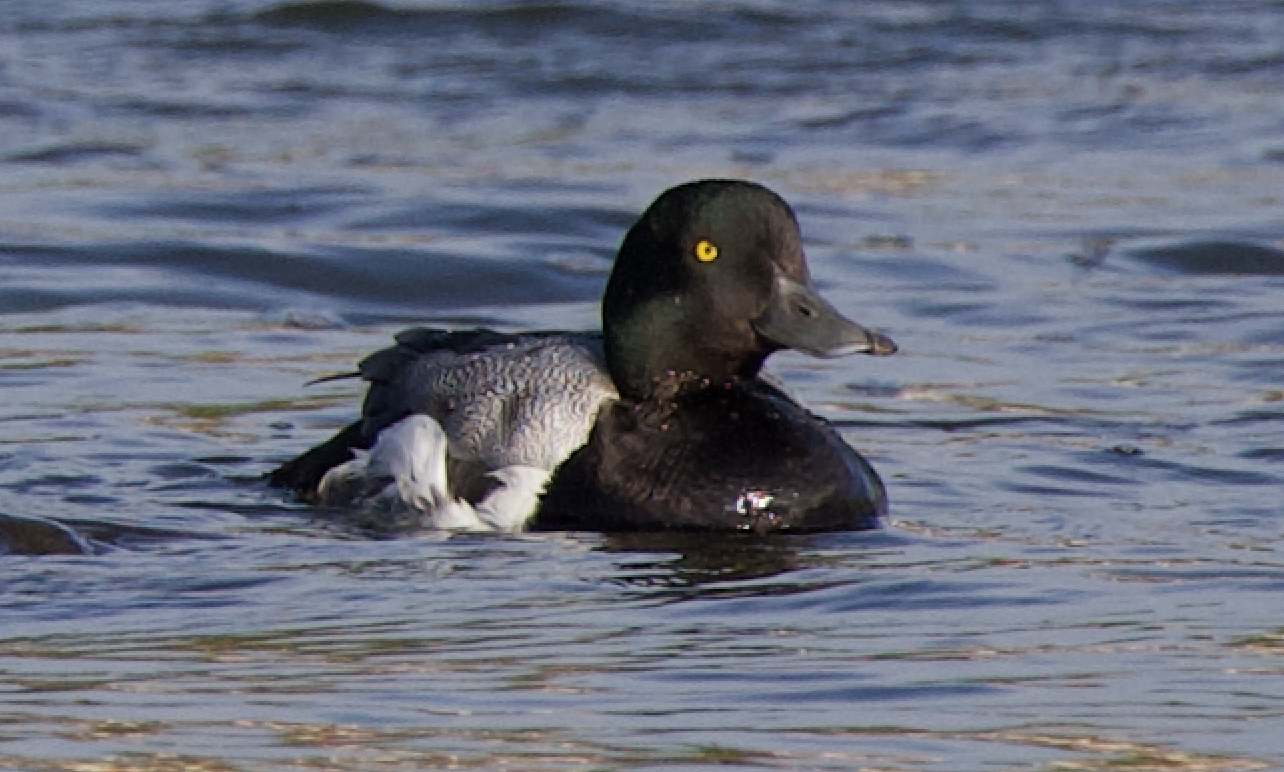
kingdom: Animalia
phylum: Chordata
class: Aves
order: Anseriformes
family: Anatidae
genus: Aythya
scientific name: Aythya marila
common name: Greater scaup
